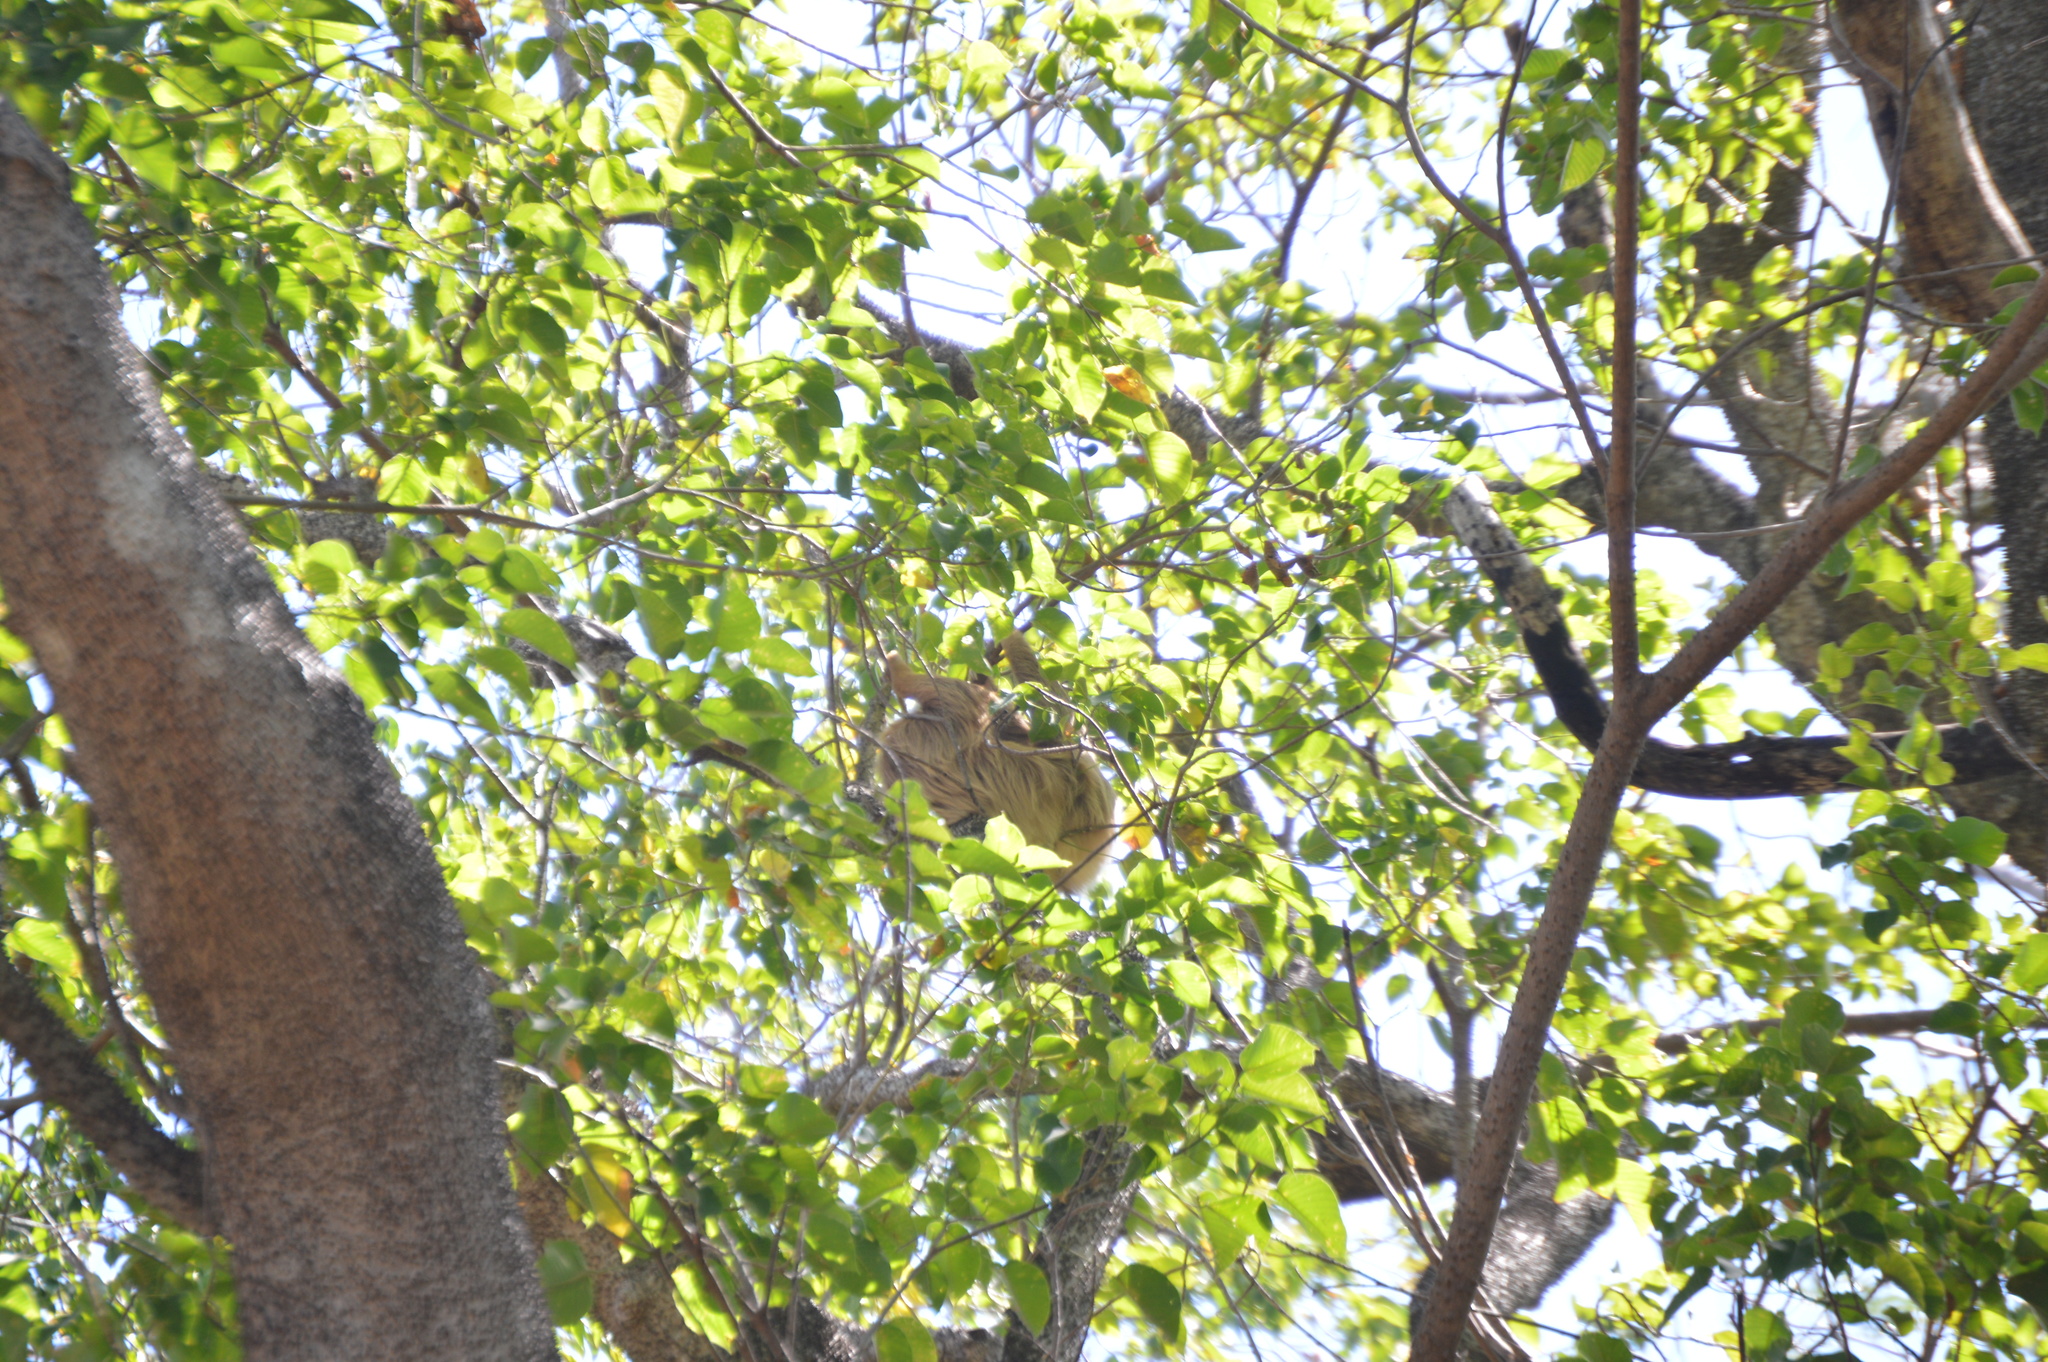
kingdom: Animalia
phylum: Chordata
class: Mammalia
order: Pilosa
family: Bradypodidae
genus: Bradypus
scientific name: Bradypus variegatus
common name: Brown-throated three-toed sloth
